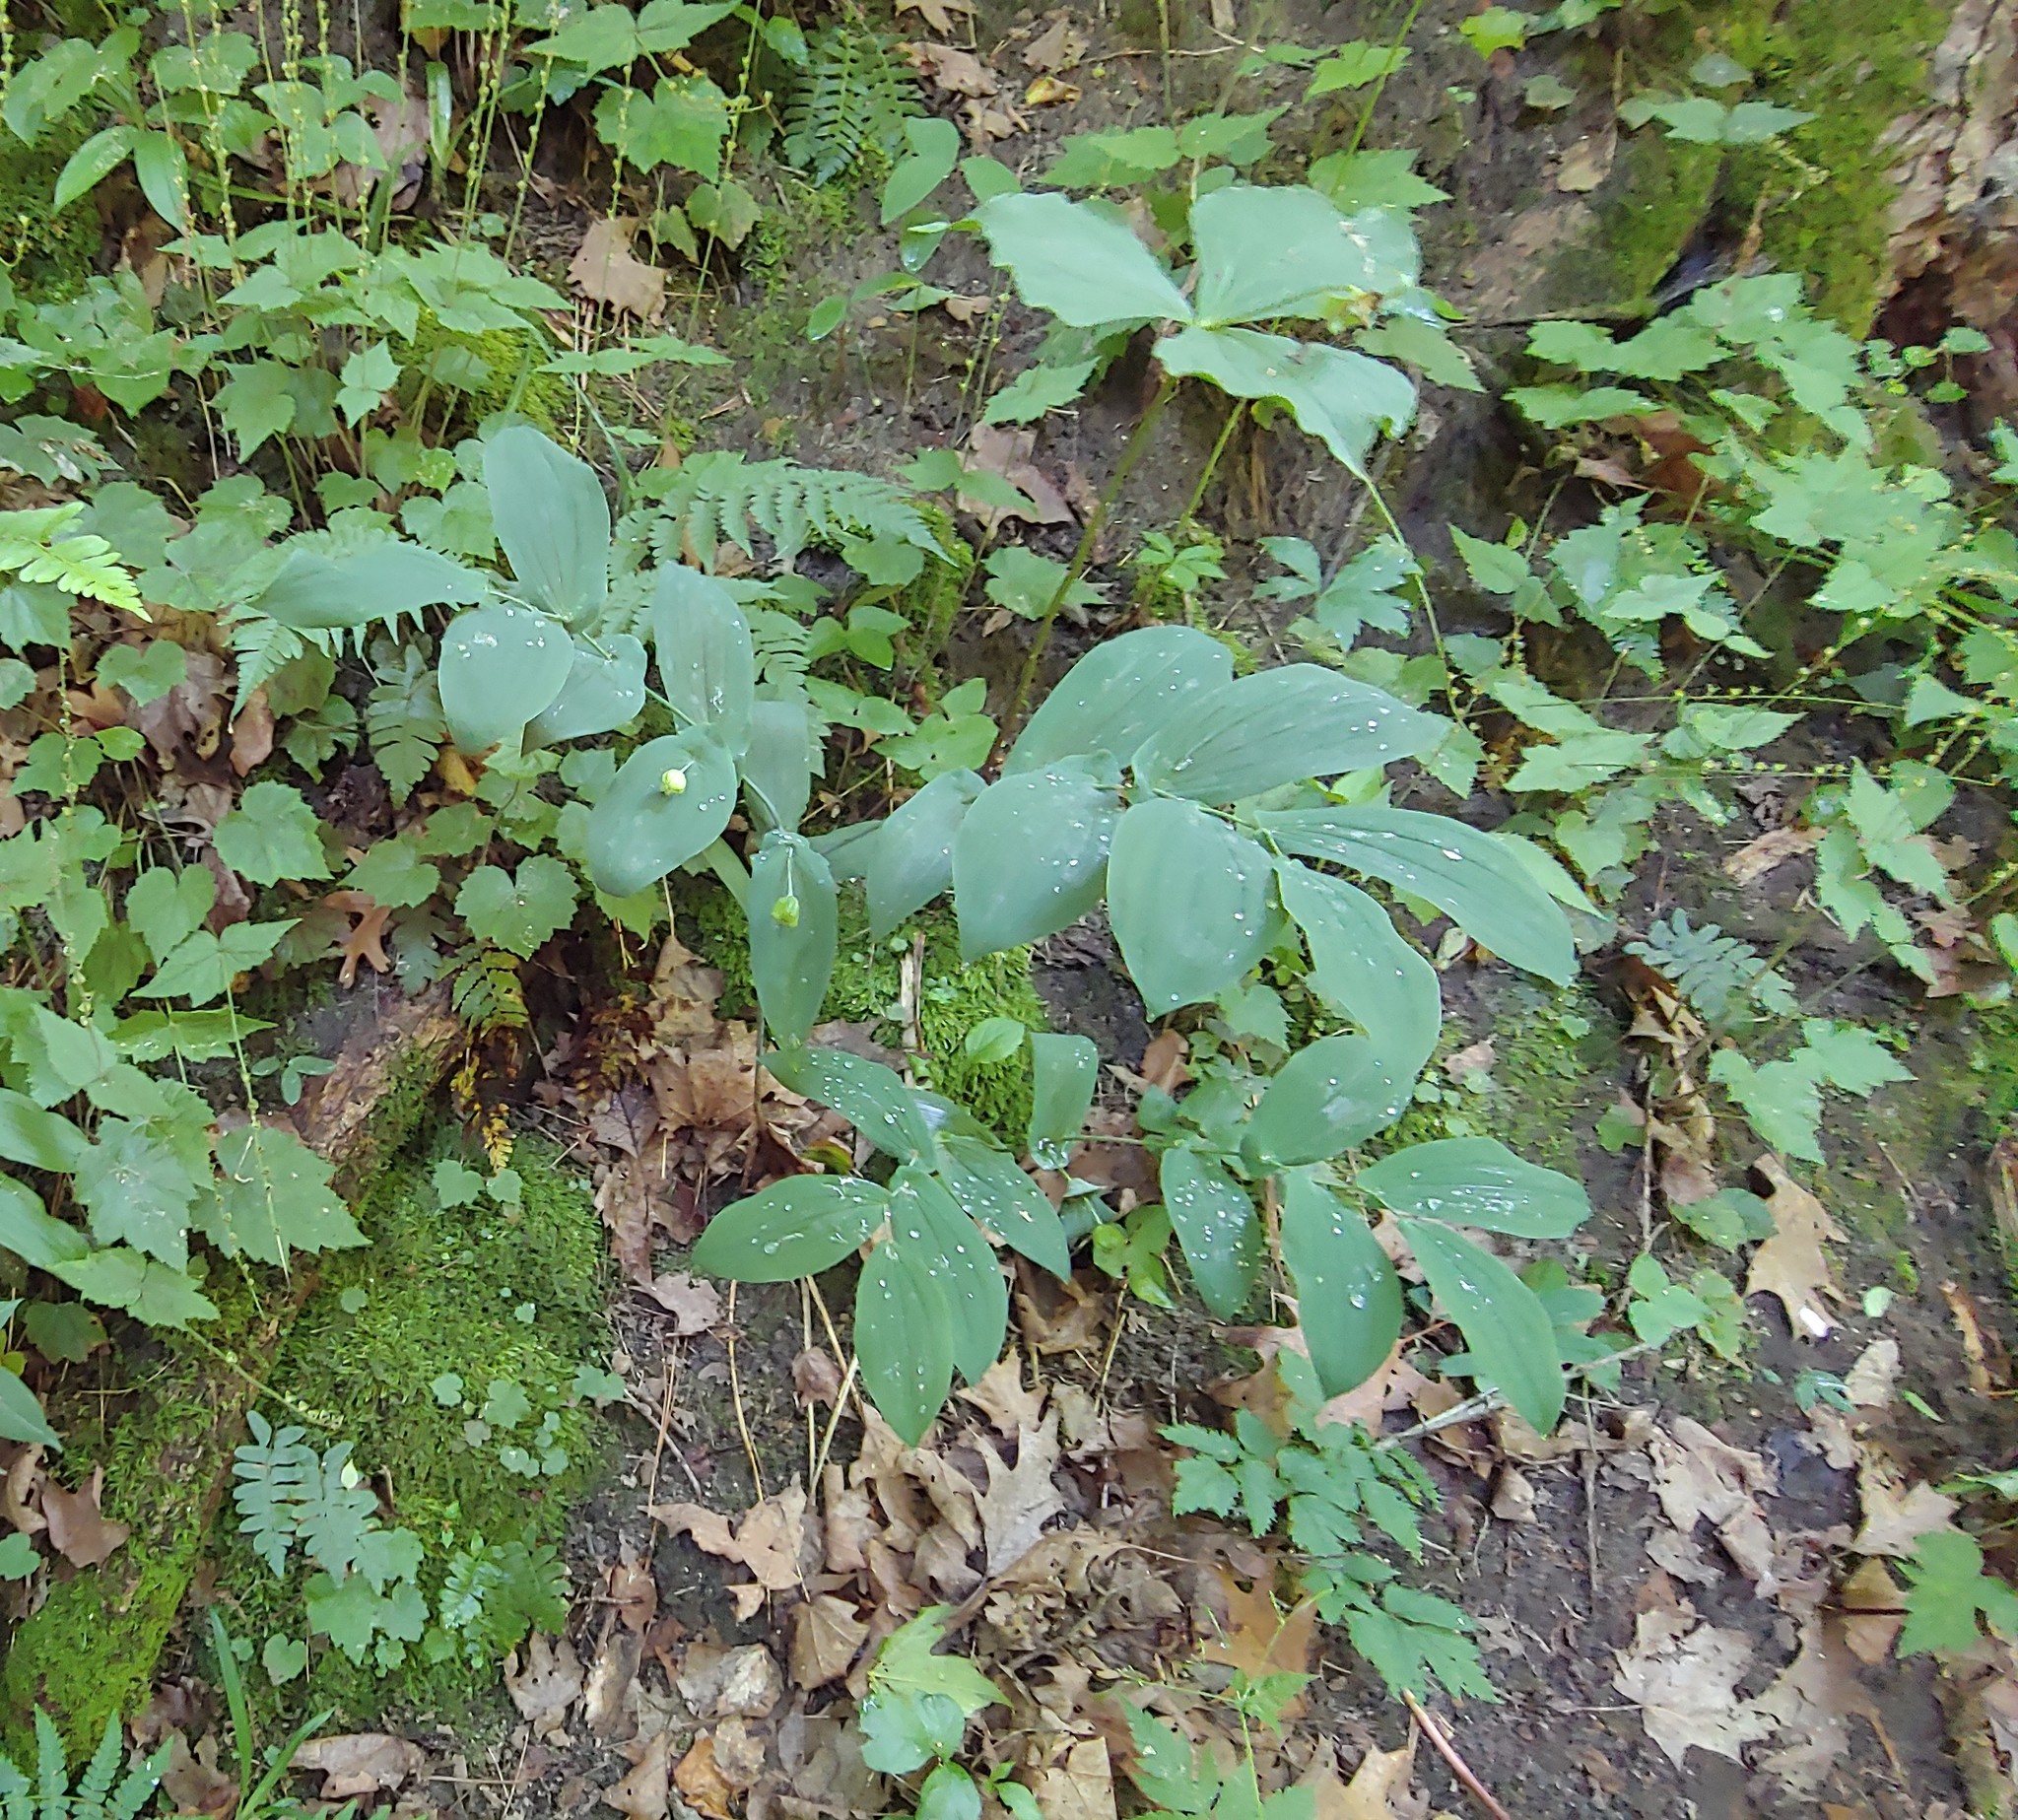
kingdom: Plantae
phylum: Tracheophyta
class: Liliopsida
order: Liliales
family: Colchicaceae
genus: Uvularia
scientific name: Uvularia grandiflora
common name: Bellwort
